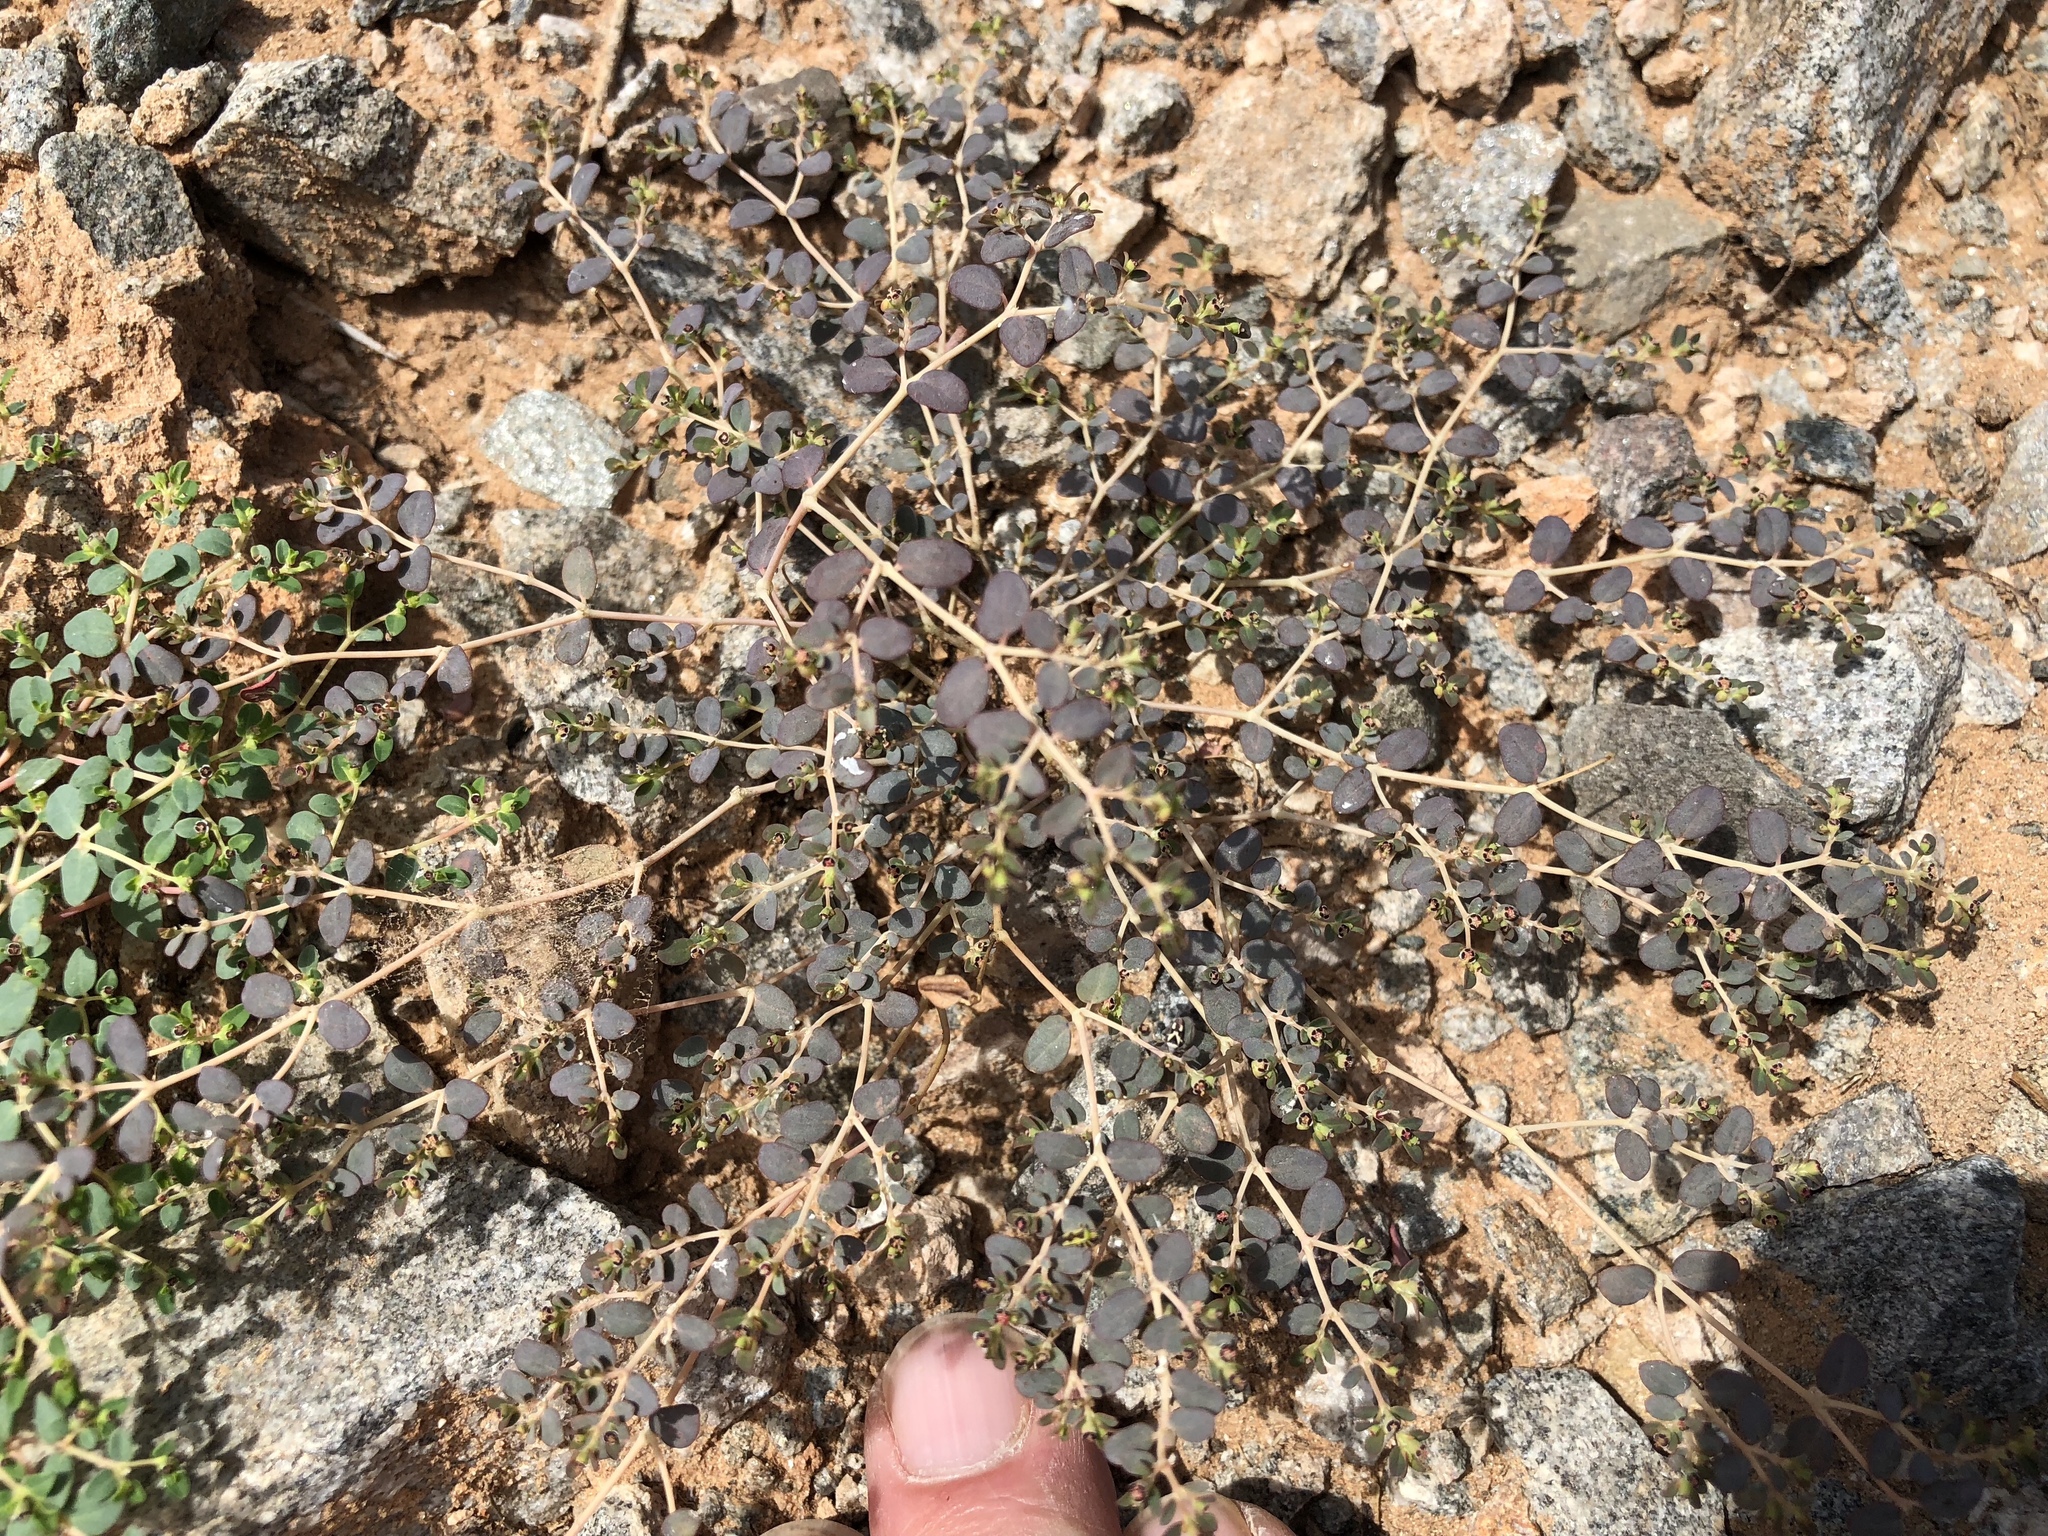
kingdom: Plantae
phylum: Tracheophyta
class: Magnoliopsida
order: Malpighiales
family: Euphorbiaceae
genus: Euphorbia
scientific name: Euphorbia polycarpa
